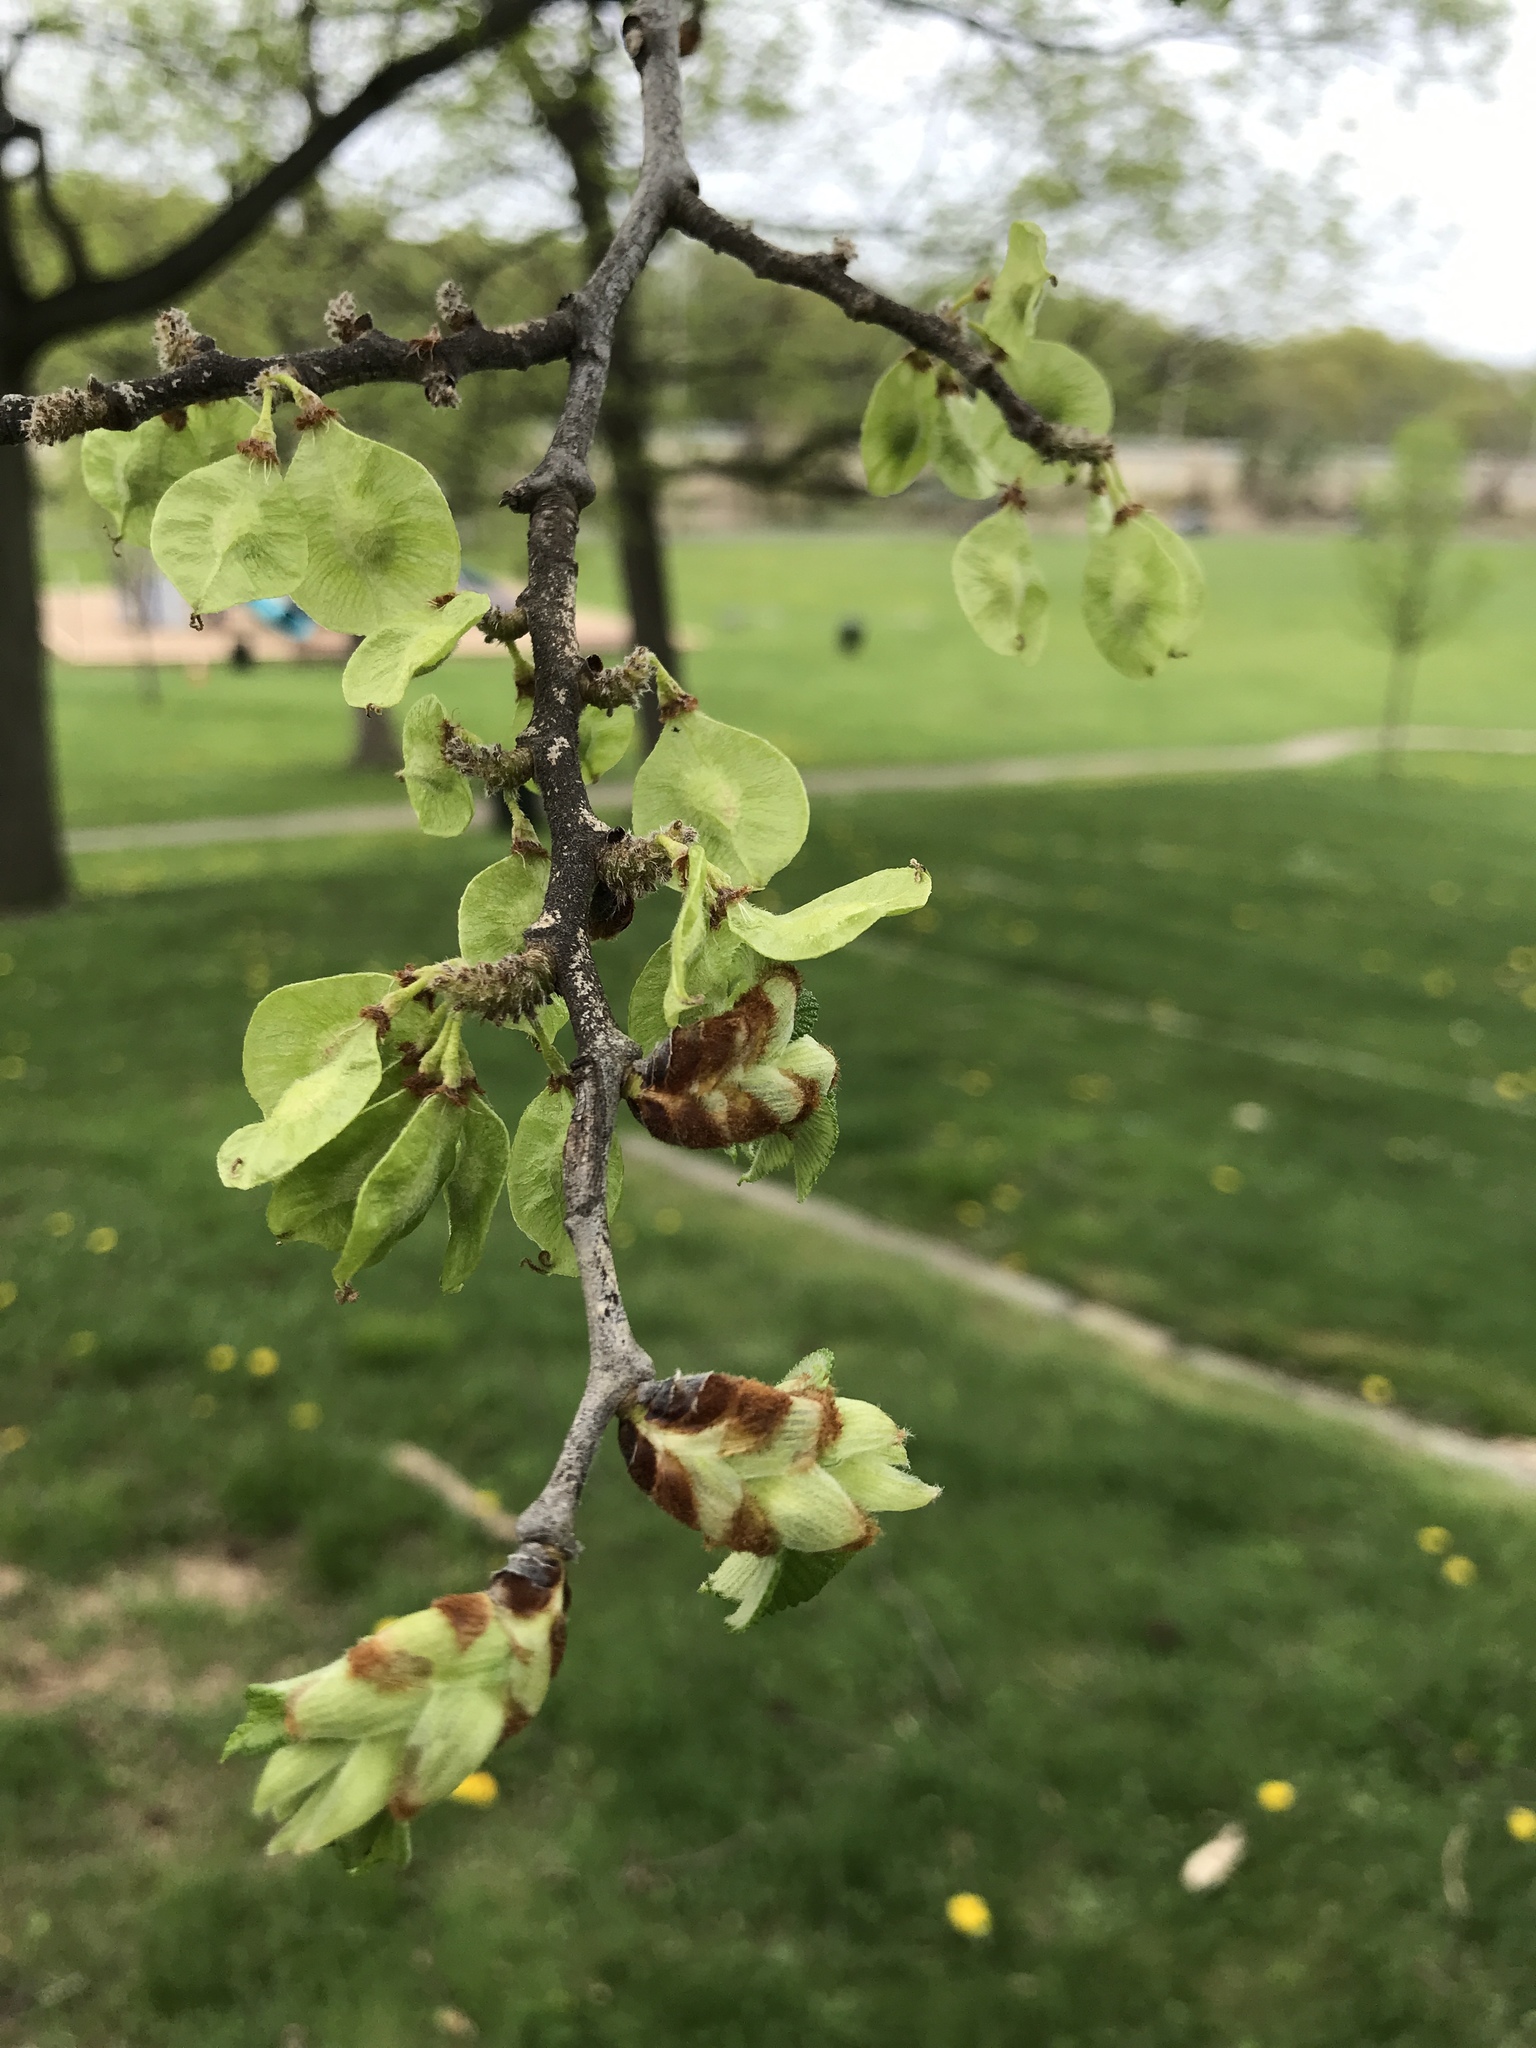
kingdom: Plantae
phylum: Tracheophyta
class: Magnoliopsida
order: Rosales
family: Ulmaceae
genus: Ulmus
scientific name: Ulmus rubra
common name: Slippery elm
